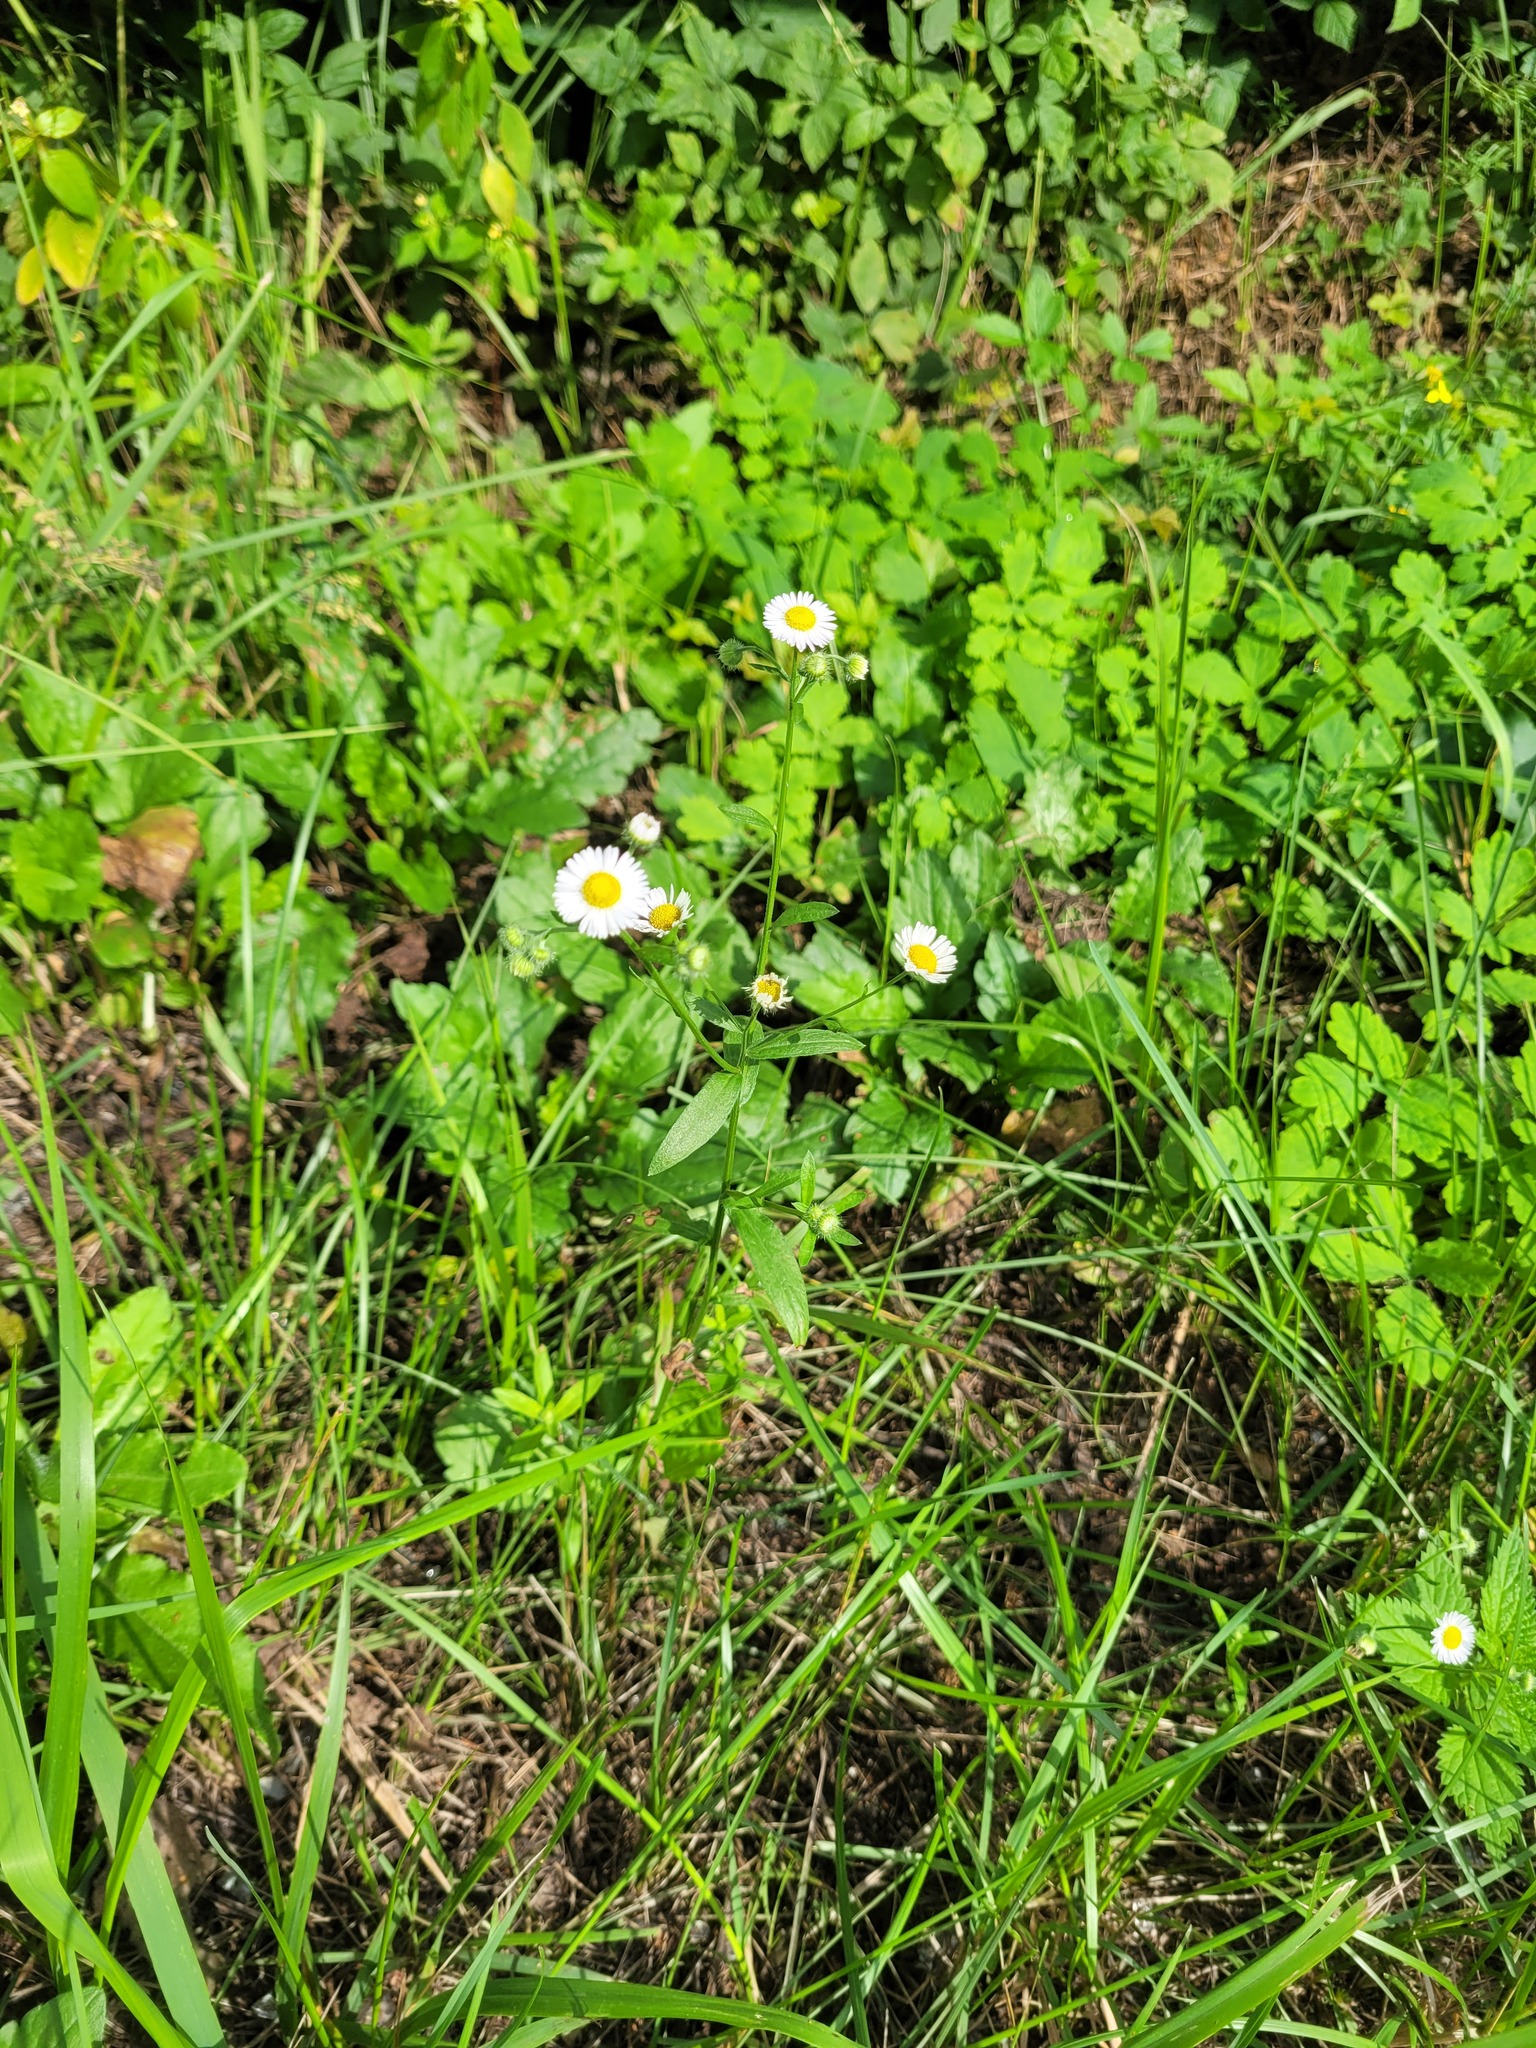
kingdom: Plantae
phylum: Tracheophyta
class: Magnoliopsida
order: Asterales
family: Asteraceae
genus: Erigeron
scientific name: Erigeron annuus
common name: Tall fleabane
